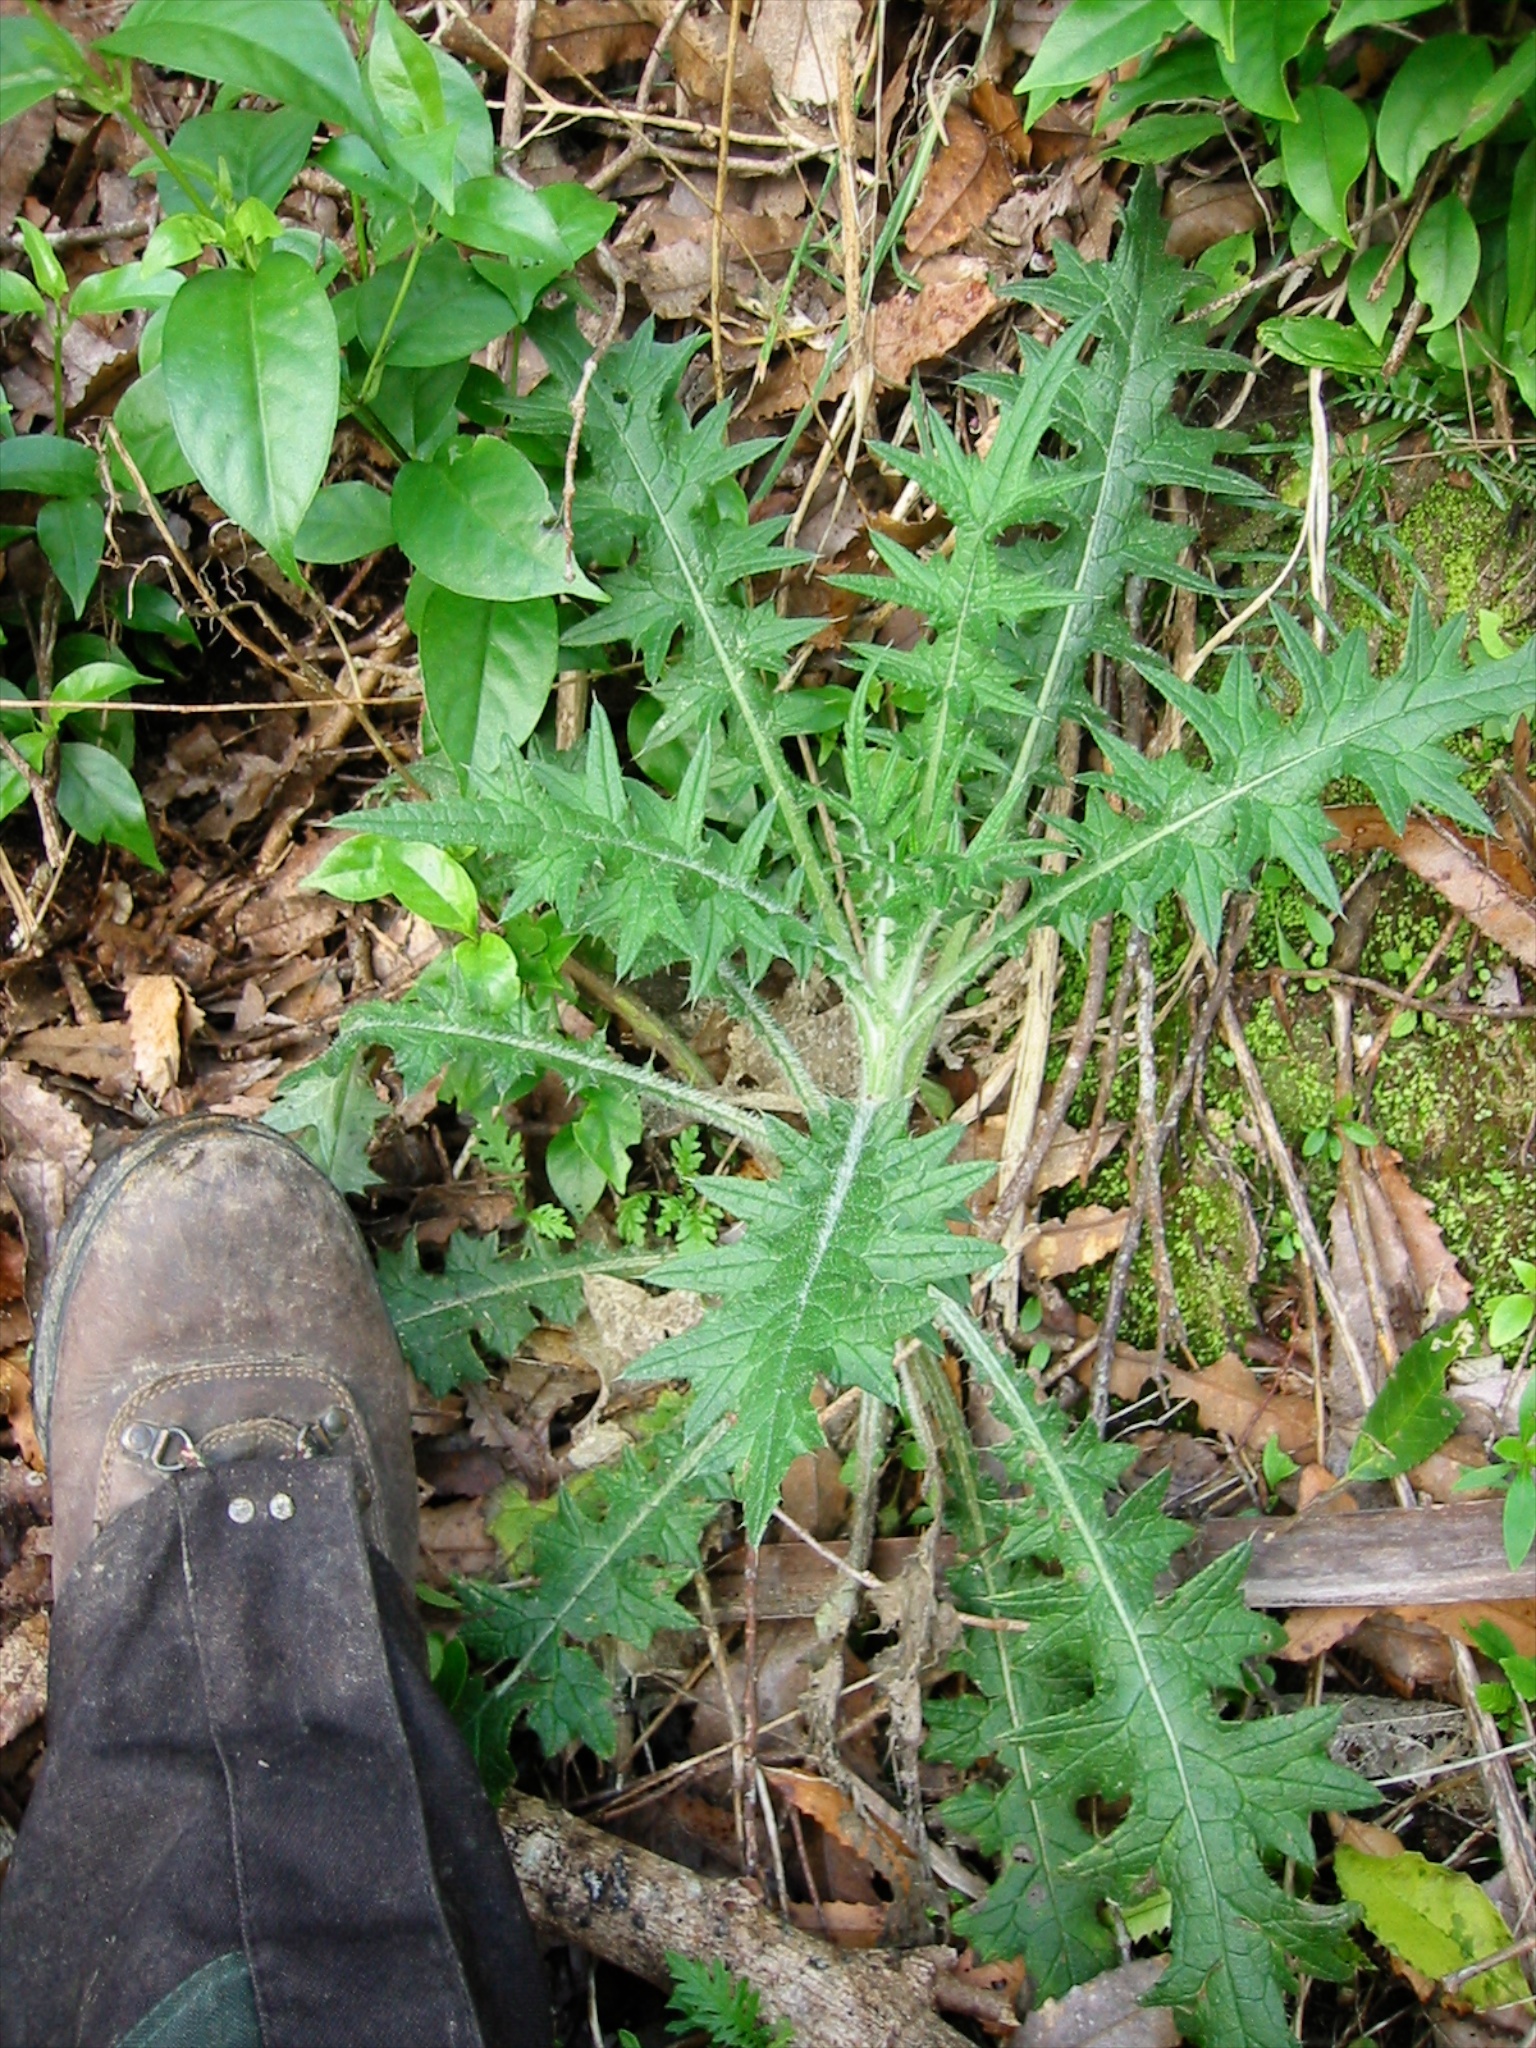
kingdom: Plantae
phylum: Tracheophyta
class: Magnoliopsida
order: Asterales
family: Asteraceae
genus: Cirsium
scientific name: Cirsium vulgare
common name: Bull thistle
